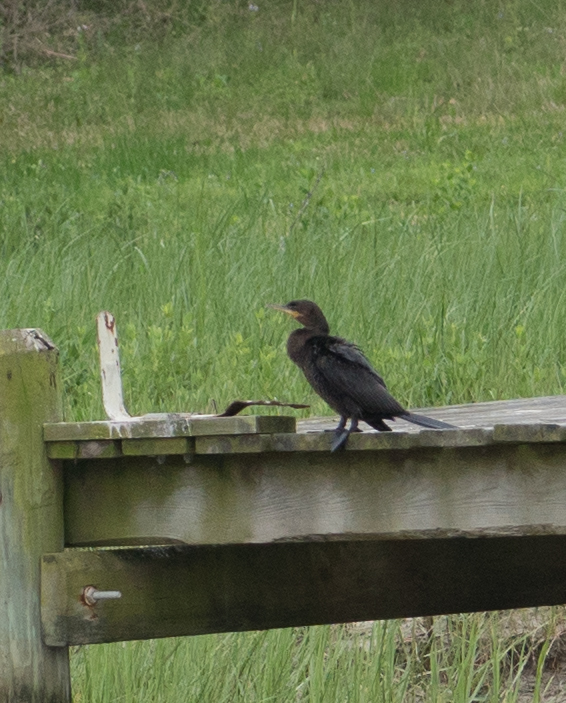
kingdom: Animalia
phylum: Chordata
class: Aves
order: Suliformes
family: Phalacrocoracidae
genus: Phalacrocorax
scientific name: Phalacrocorax brasilianus
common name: Neotropic cormorant
